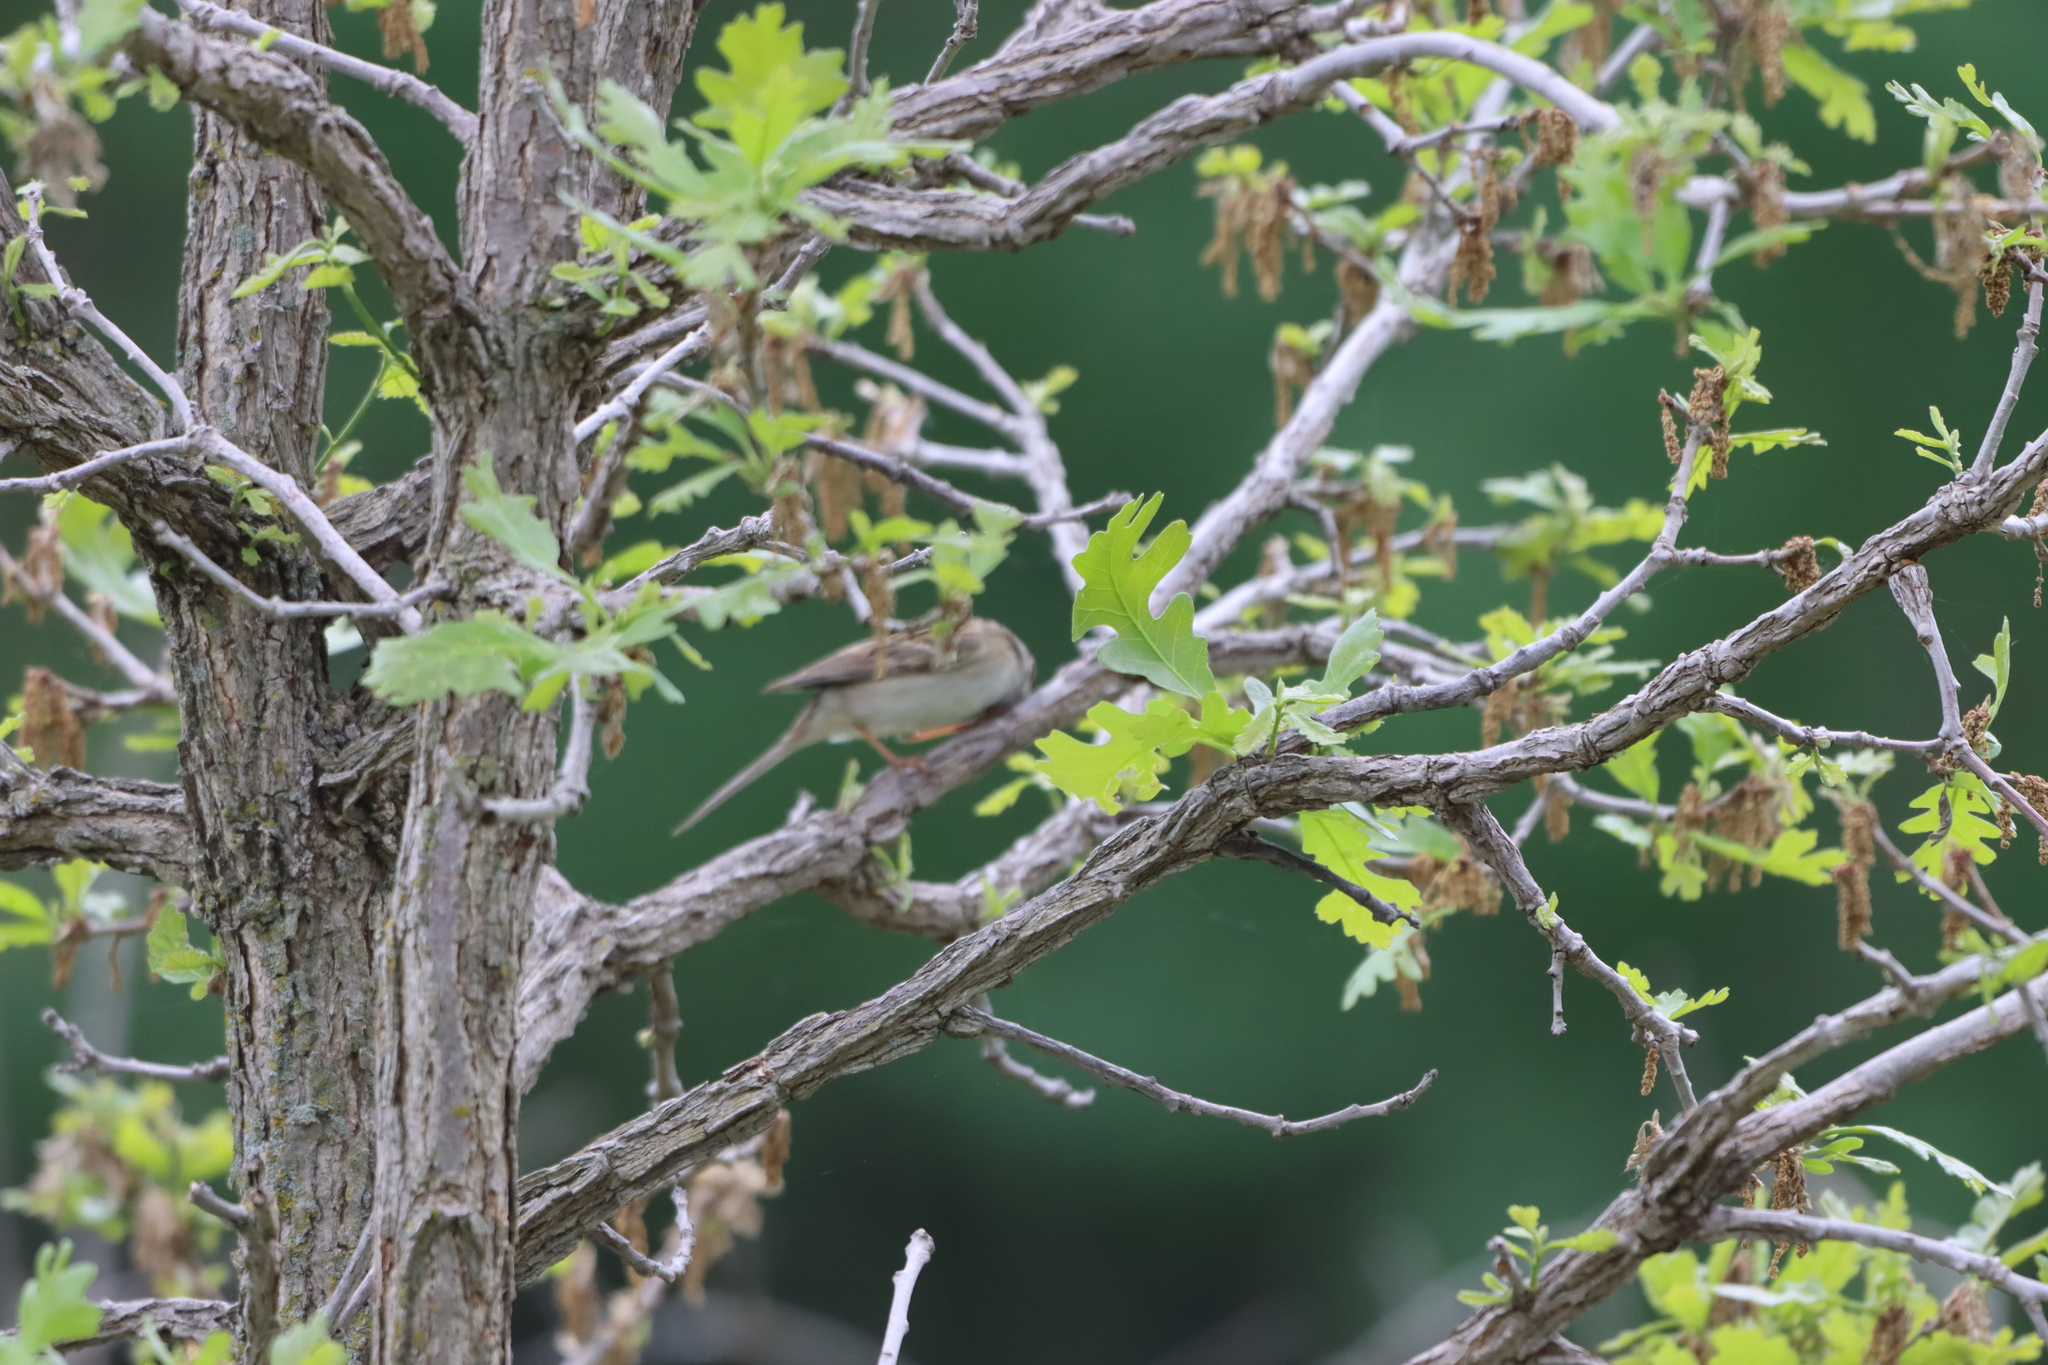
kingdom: Plantae
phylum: Tracheophyta
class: Magnoliopsida
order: Fagales
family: Fagaceae
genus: Quercus
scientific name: Quercus macrocarpa
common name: Bur oak
